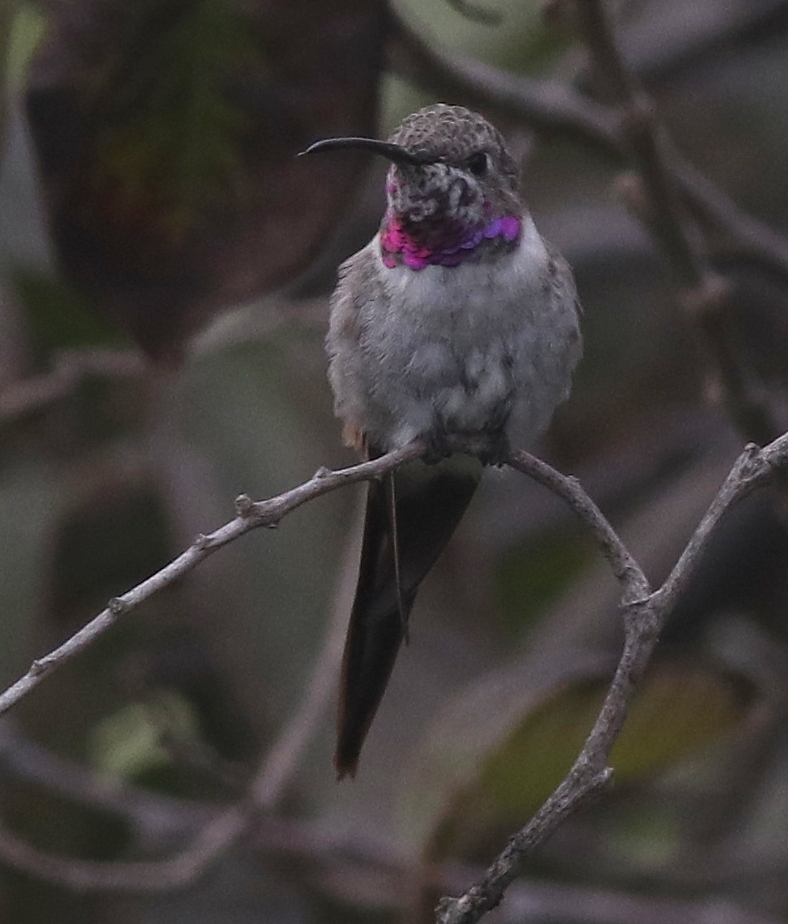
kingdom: Animalia
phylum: Chordata
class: Aves
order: Apodiformes
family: Trochilidae
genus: Rhodopis
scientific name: Rhodopis vesper
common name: Oasis hummingbird
